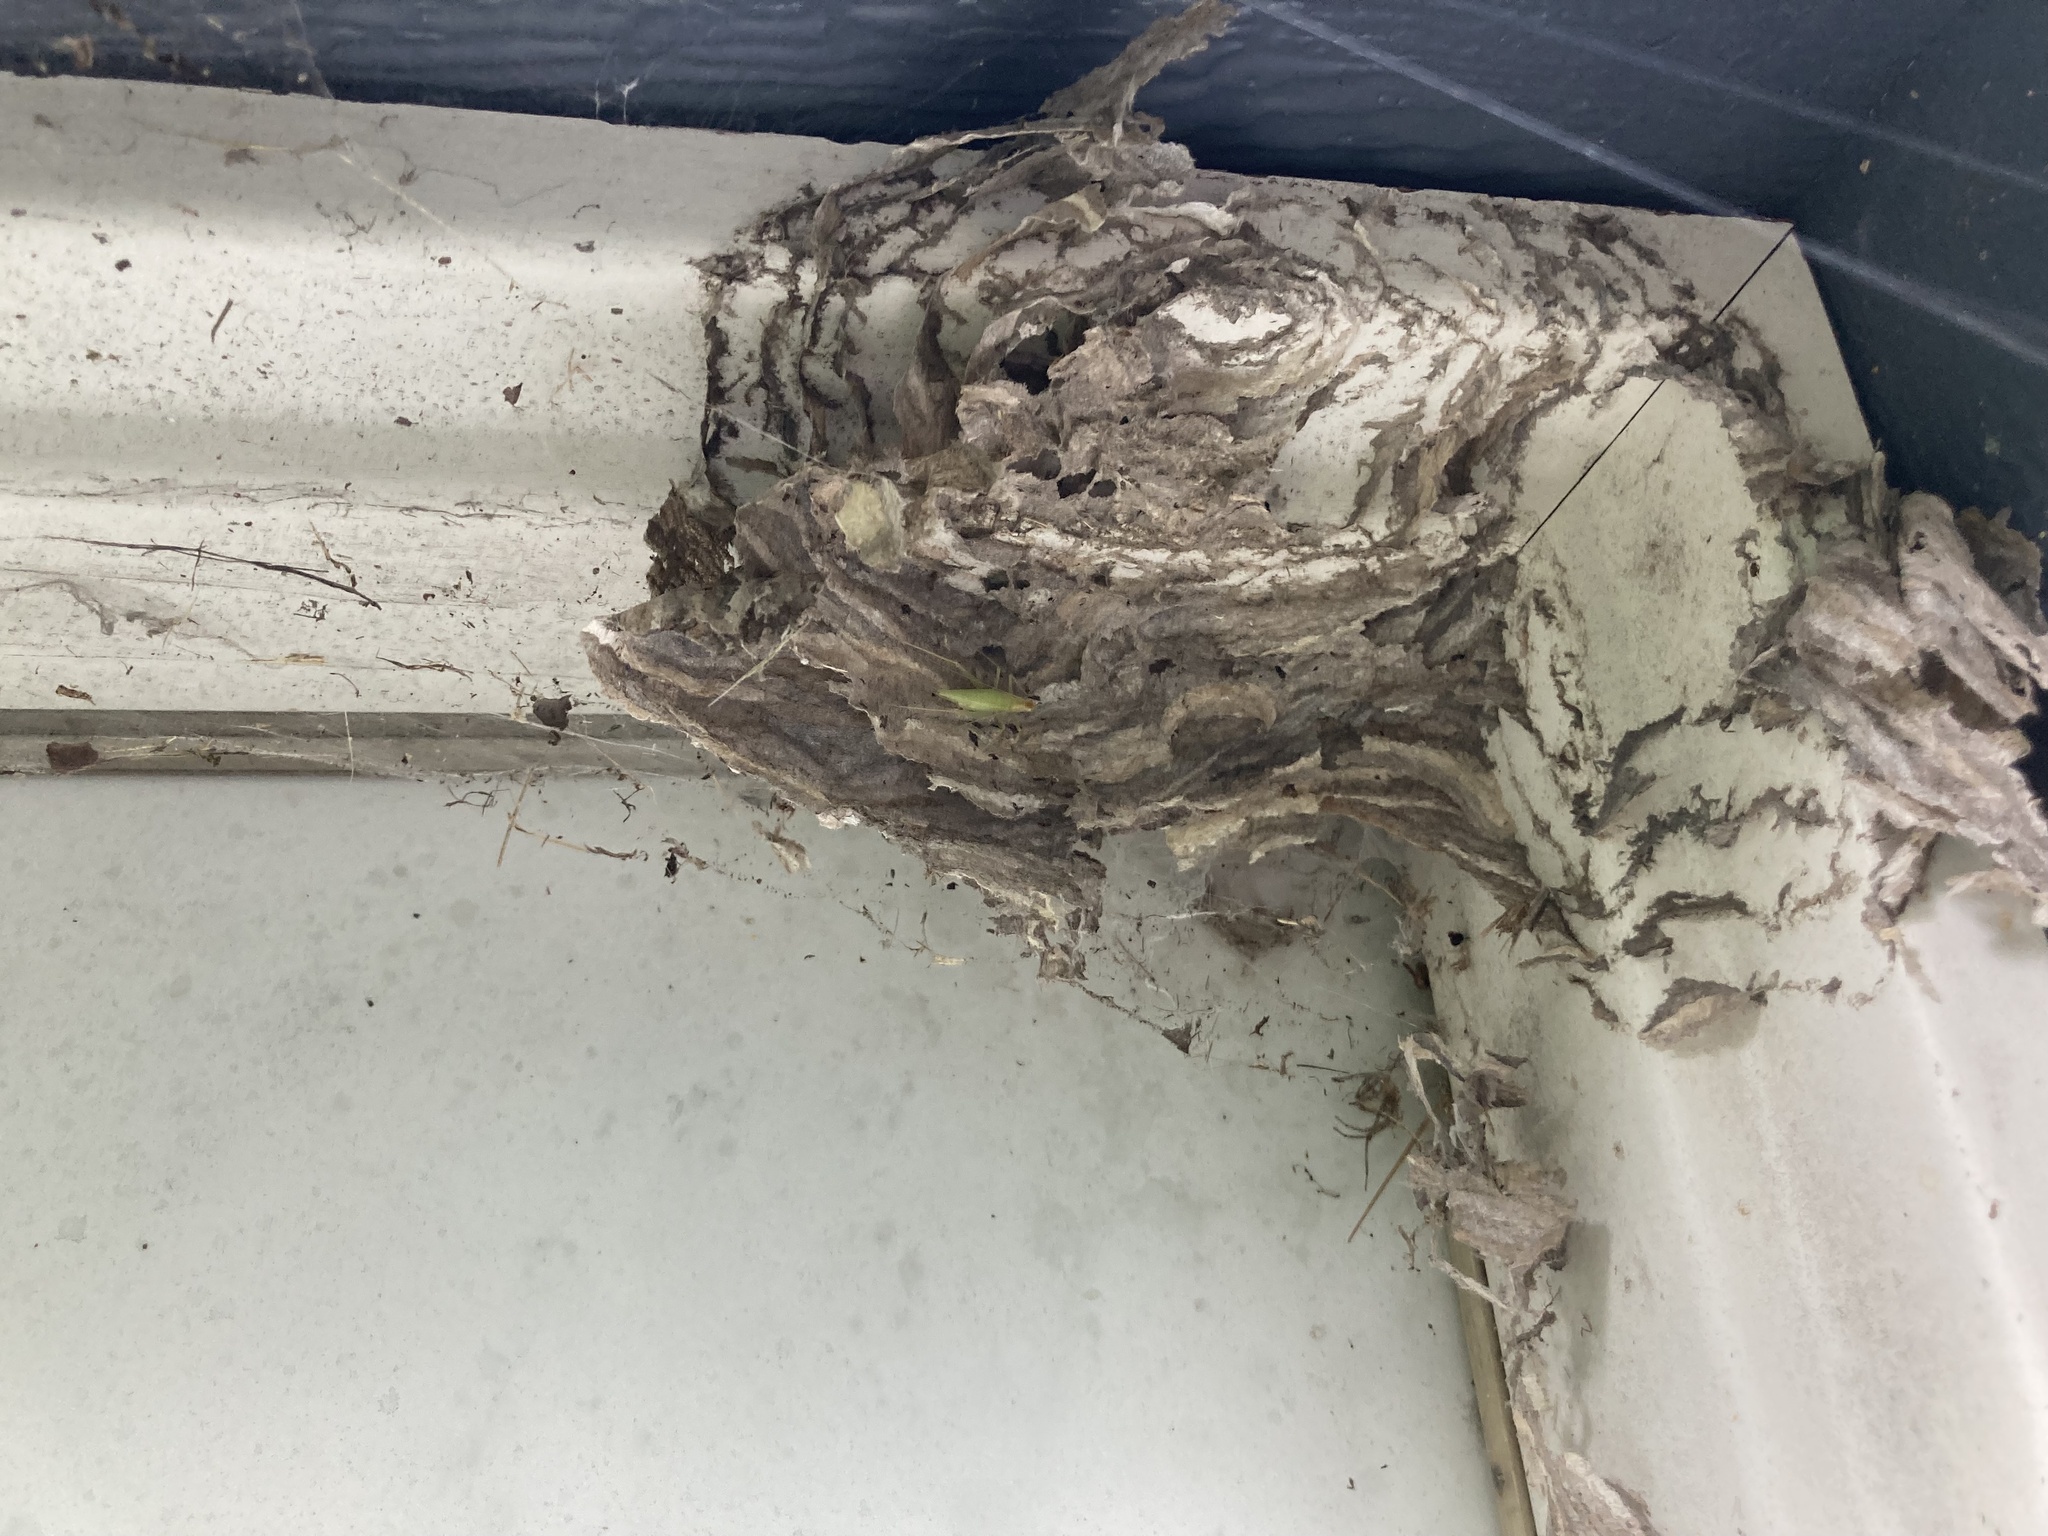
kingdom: Animalia
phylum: Arthropoda
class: Insecta
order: Hymenoptera
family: Vespidae
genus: Dolichovespula
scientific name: Dolichovespula
